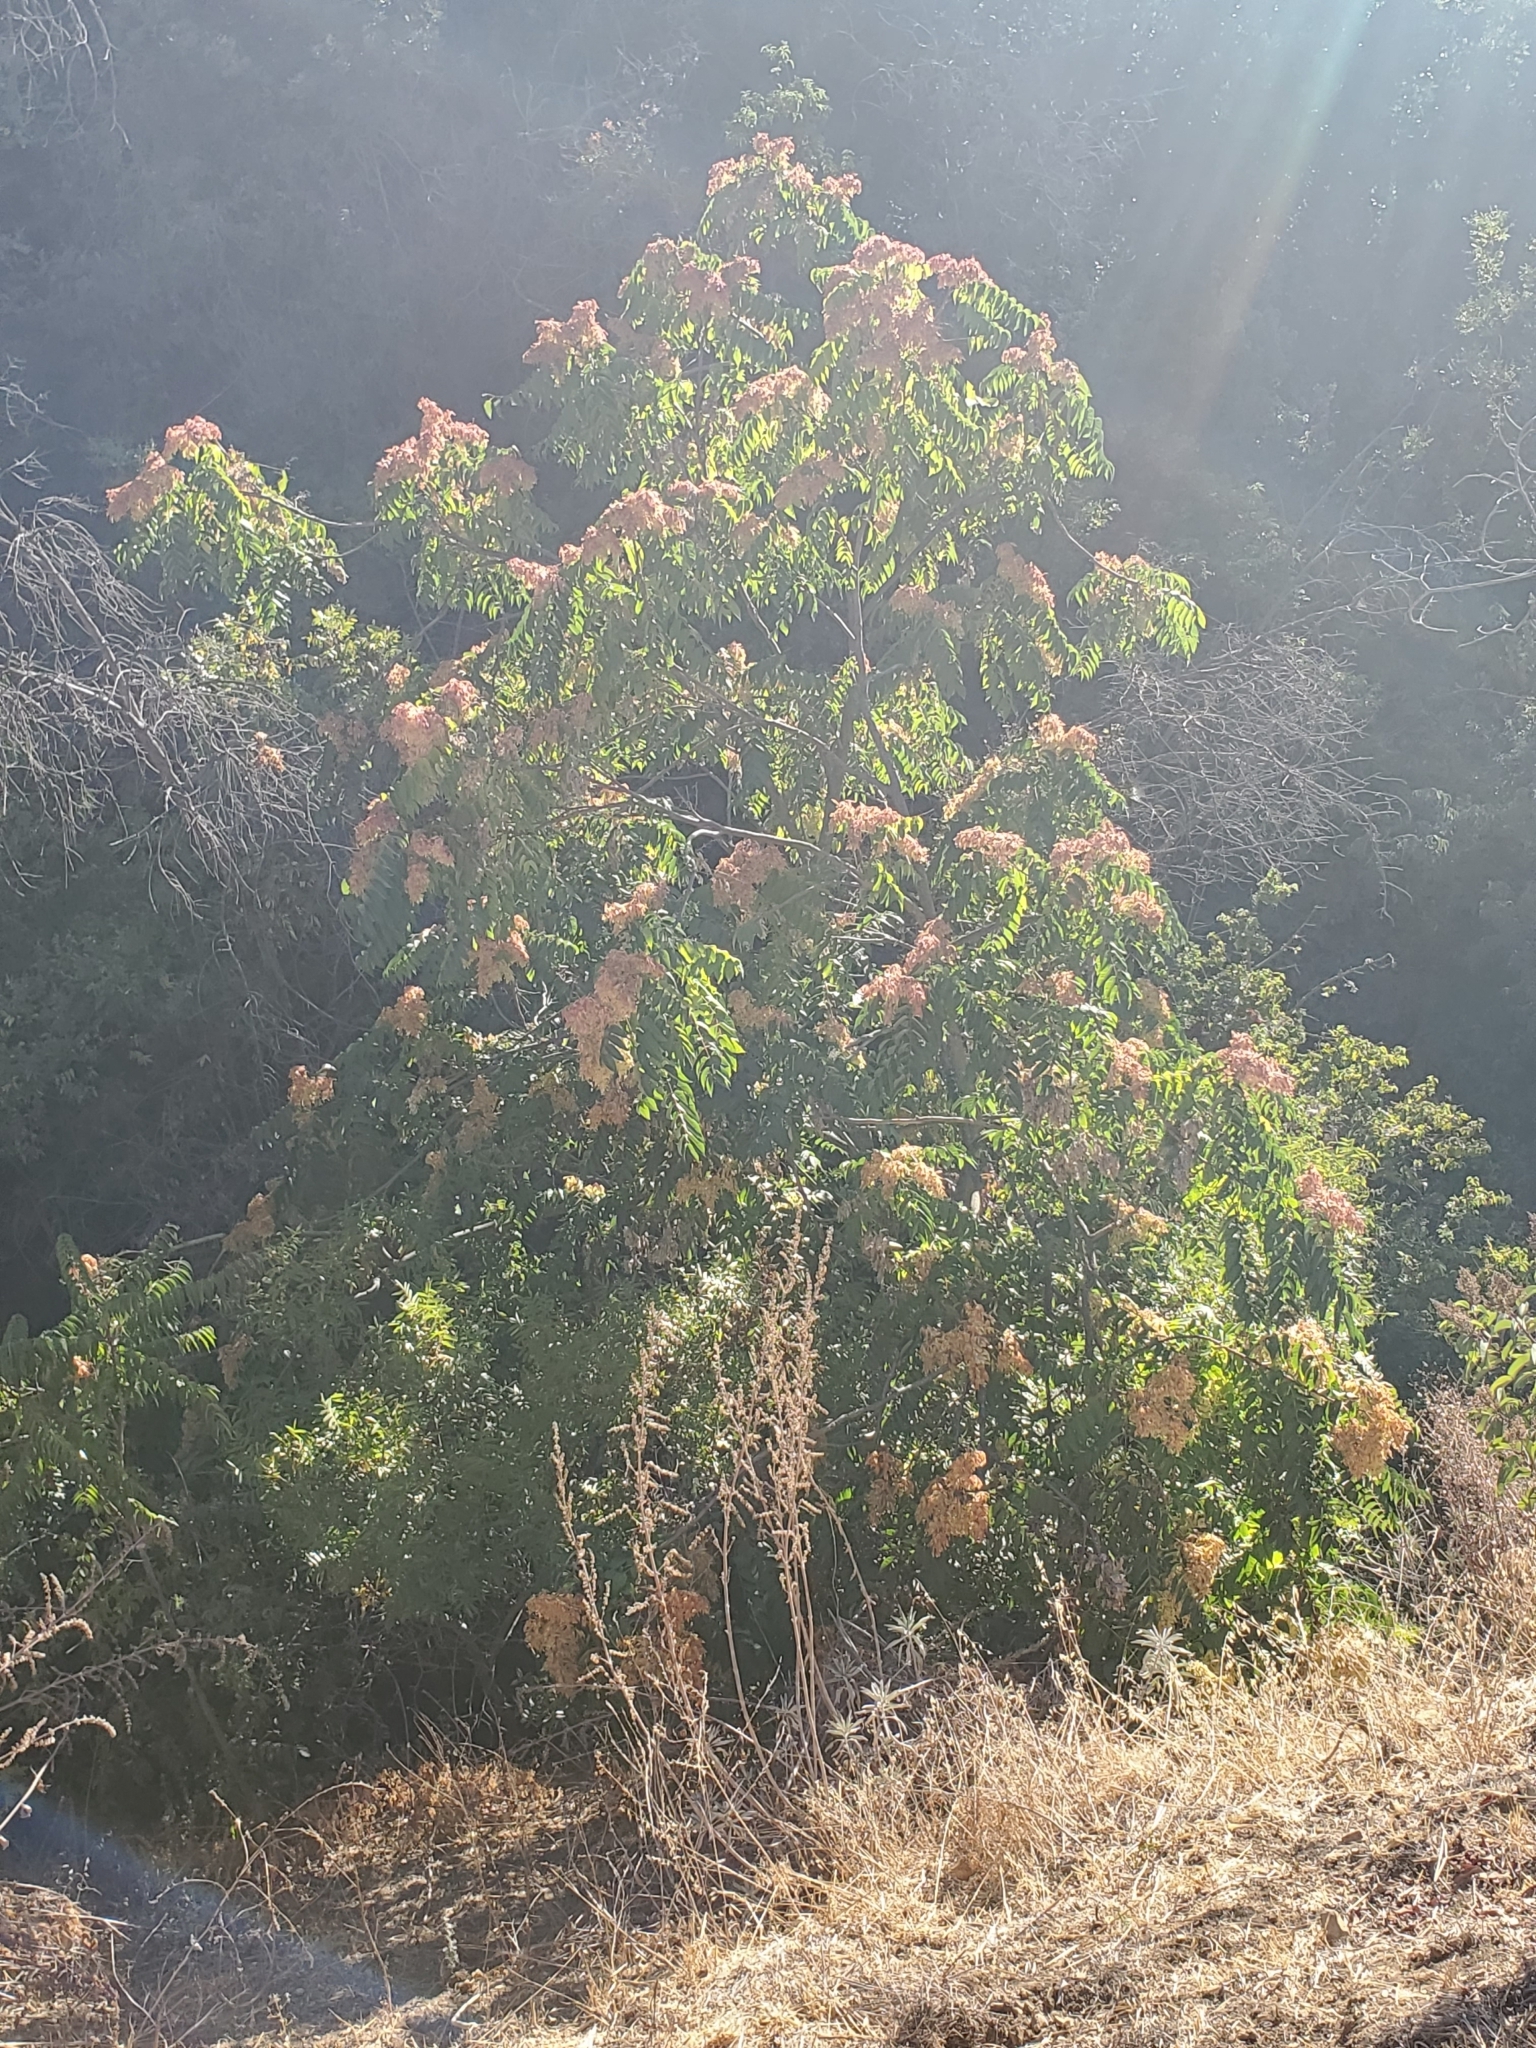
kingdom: Plantae
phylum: Tracheophyta
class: Magnoliopsida
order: Sapindales
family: Simaroubaceae
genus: Ailanthus
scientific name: Ailanthus altissima
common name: Tree-of-heaven
